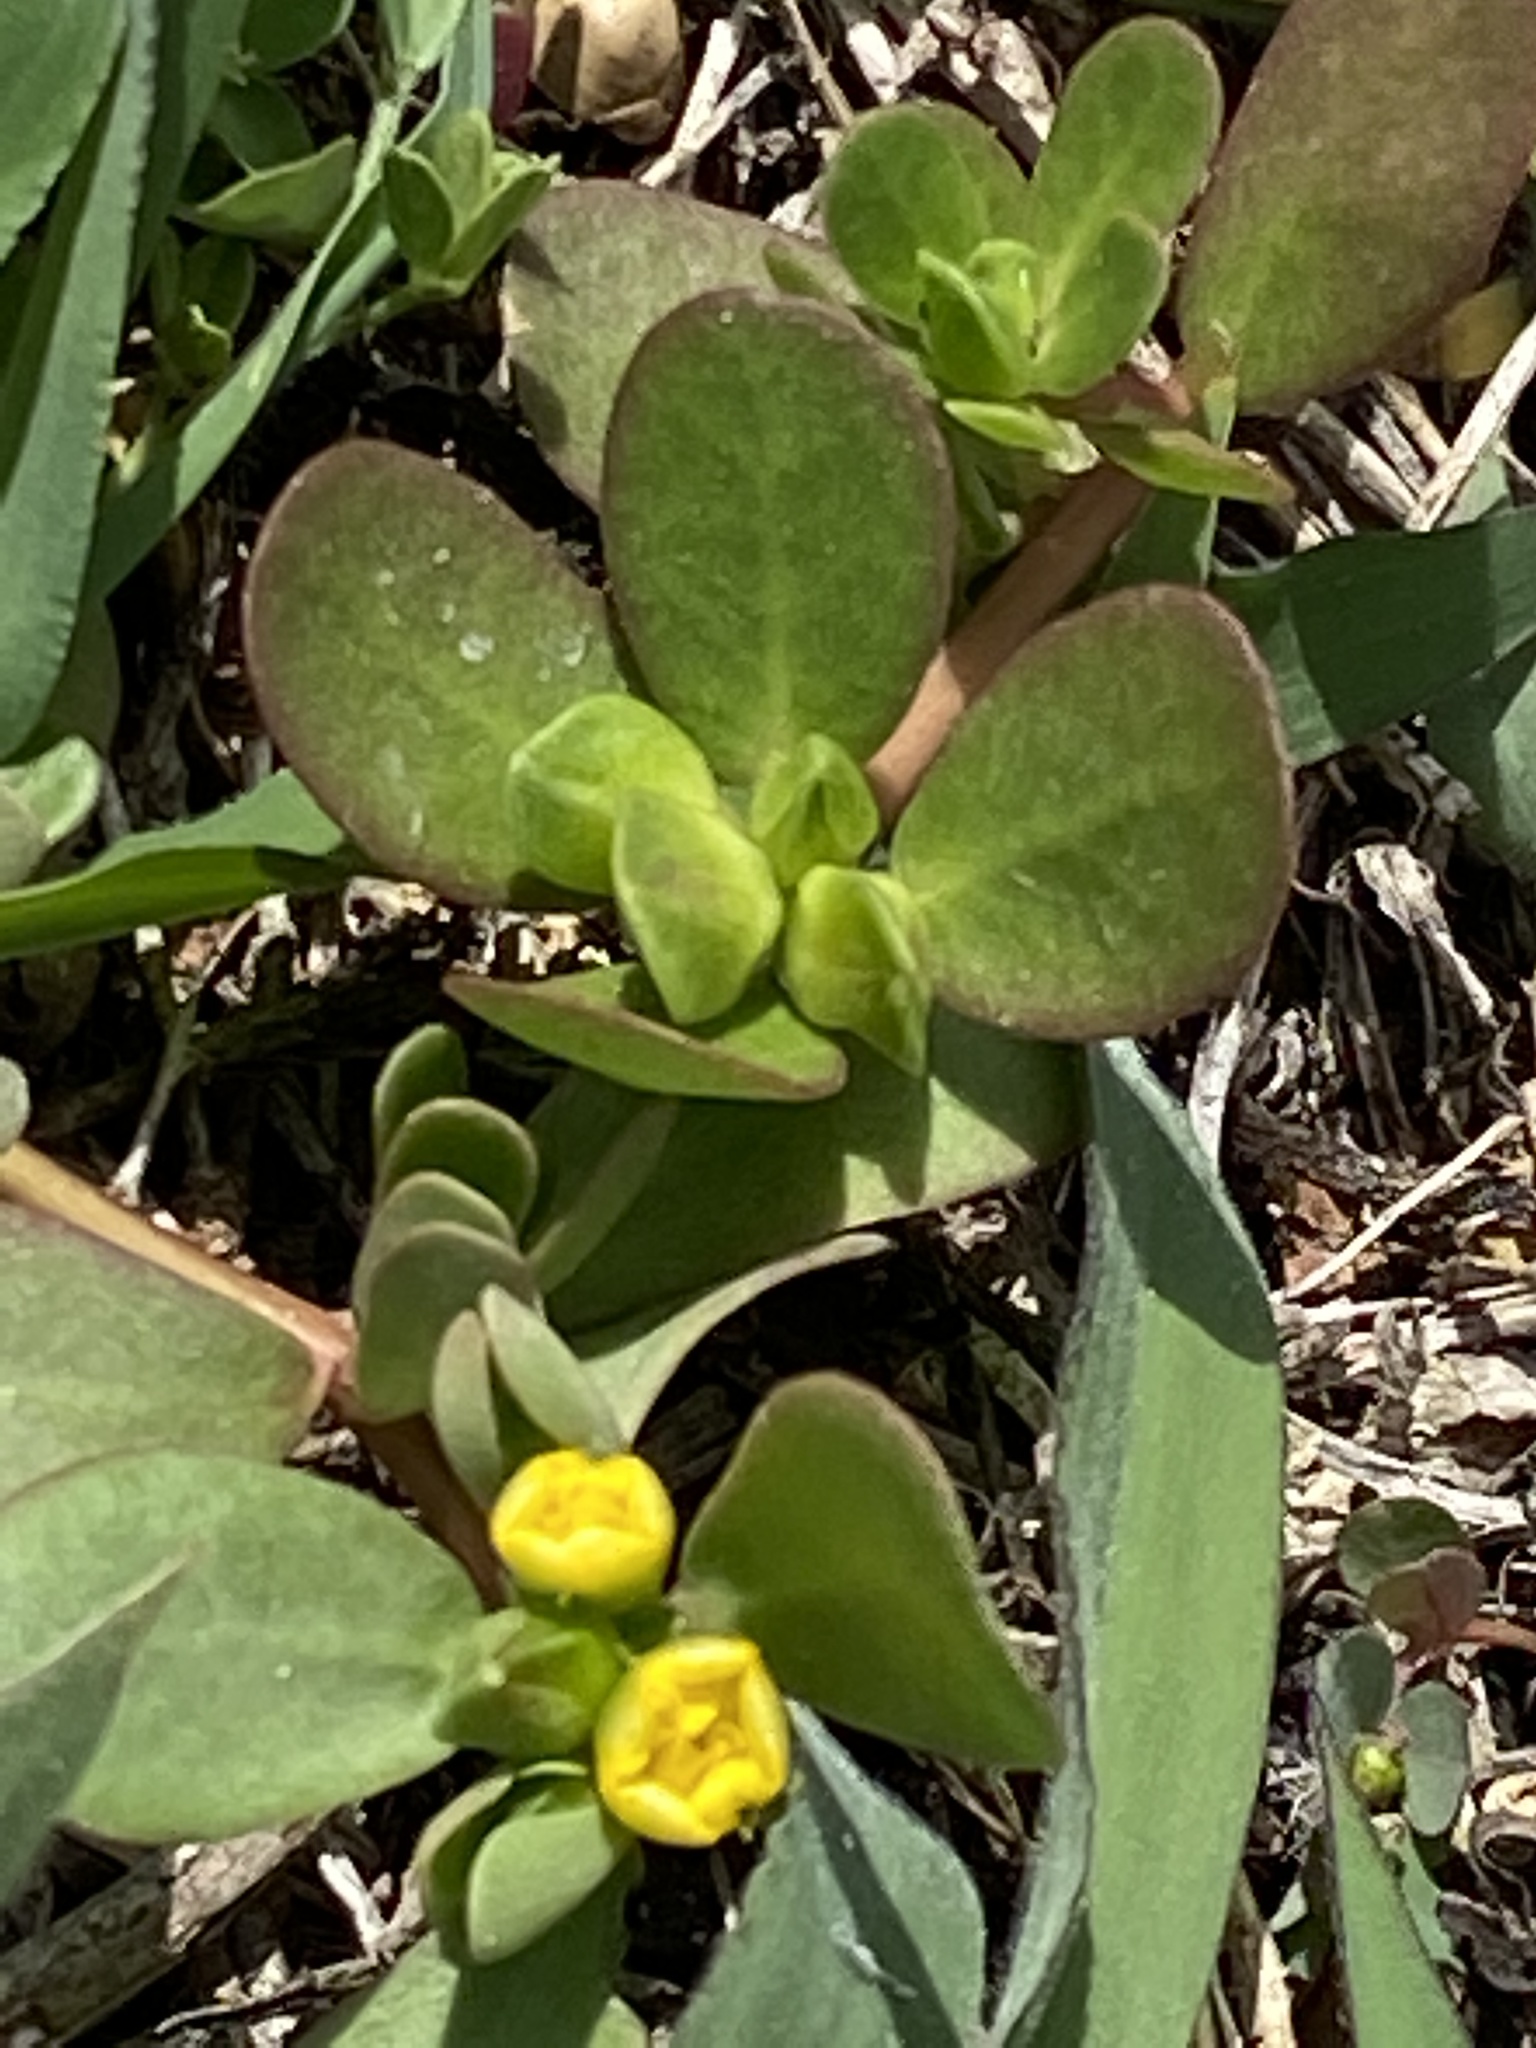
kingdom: Plantae
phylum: Tracheophyta
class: Magnoliopsida
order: Caryophyllales
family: Portulacaceae
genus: Portulaca
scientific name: Portulaca oleracea
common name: Common purslane
